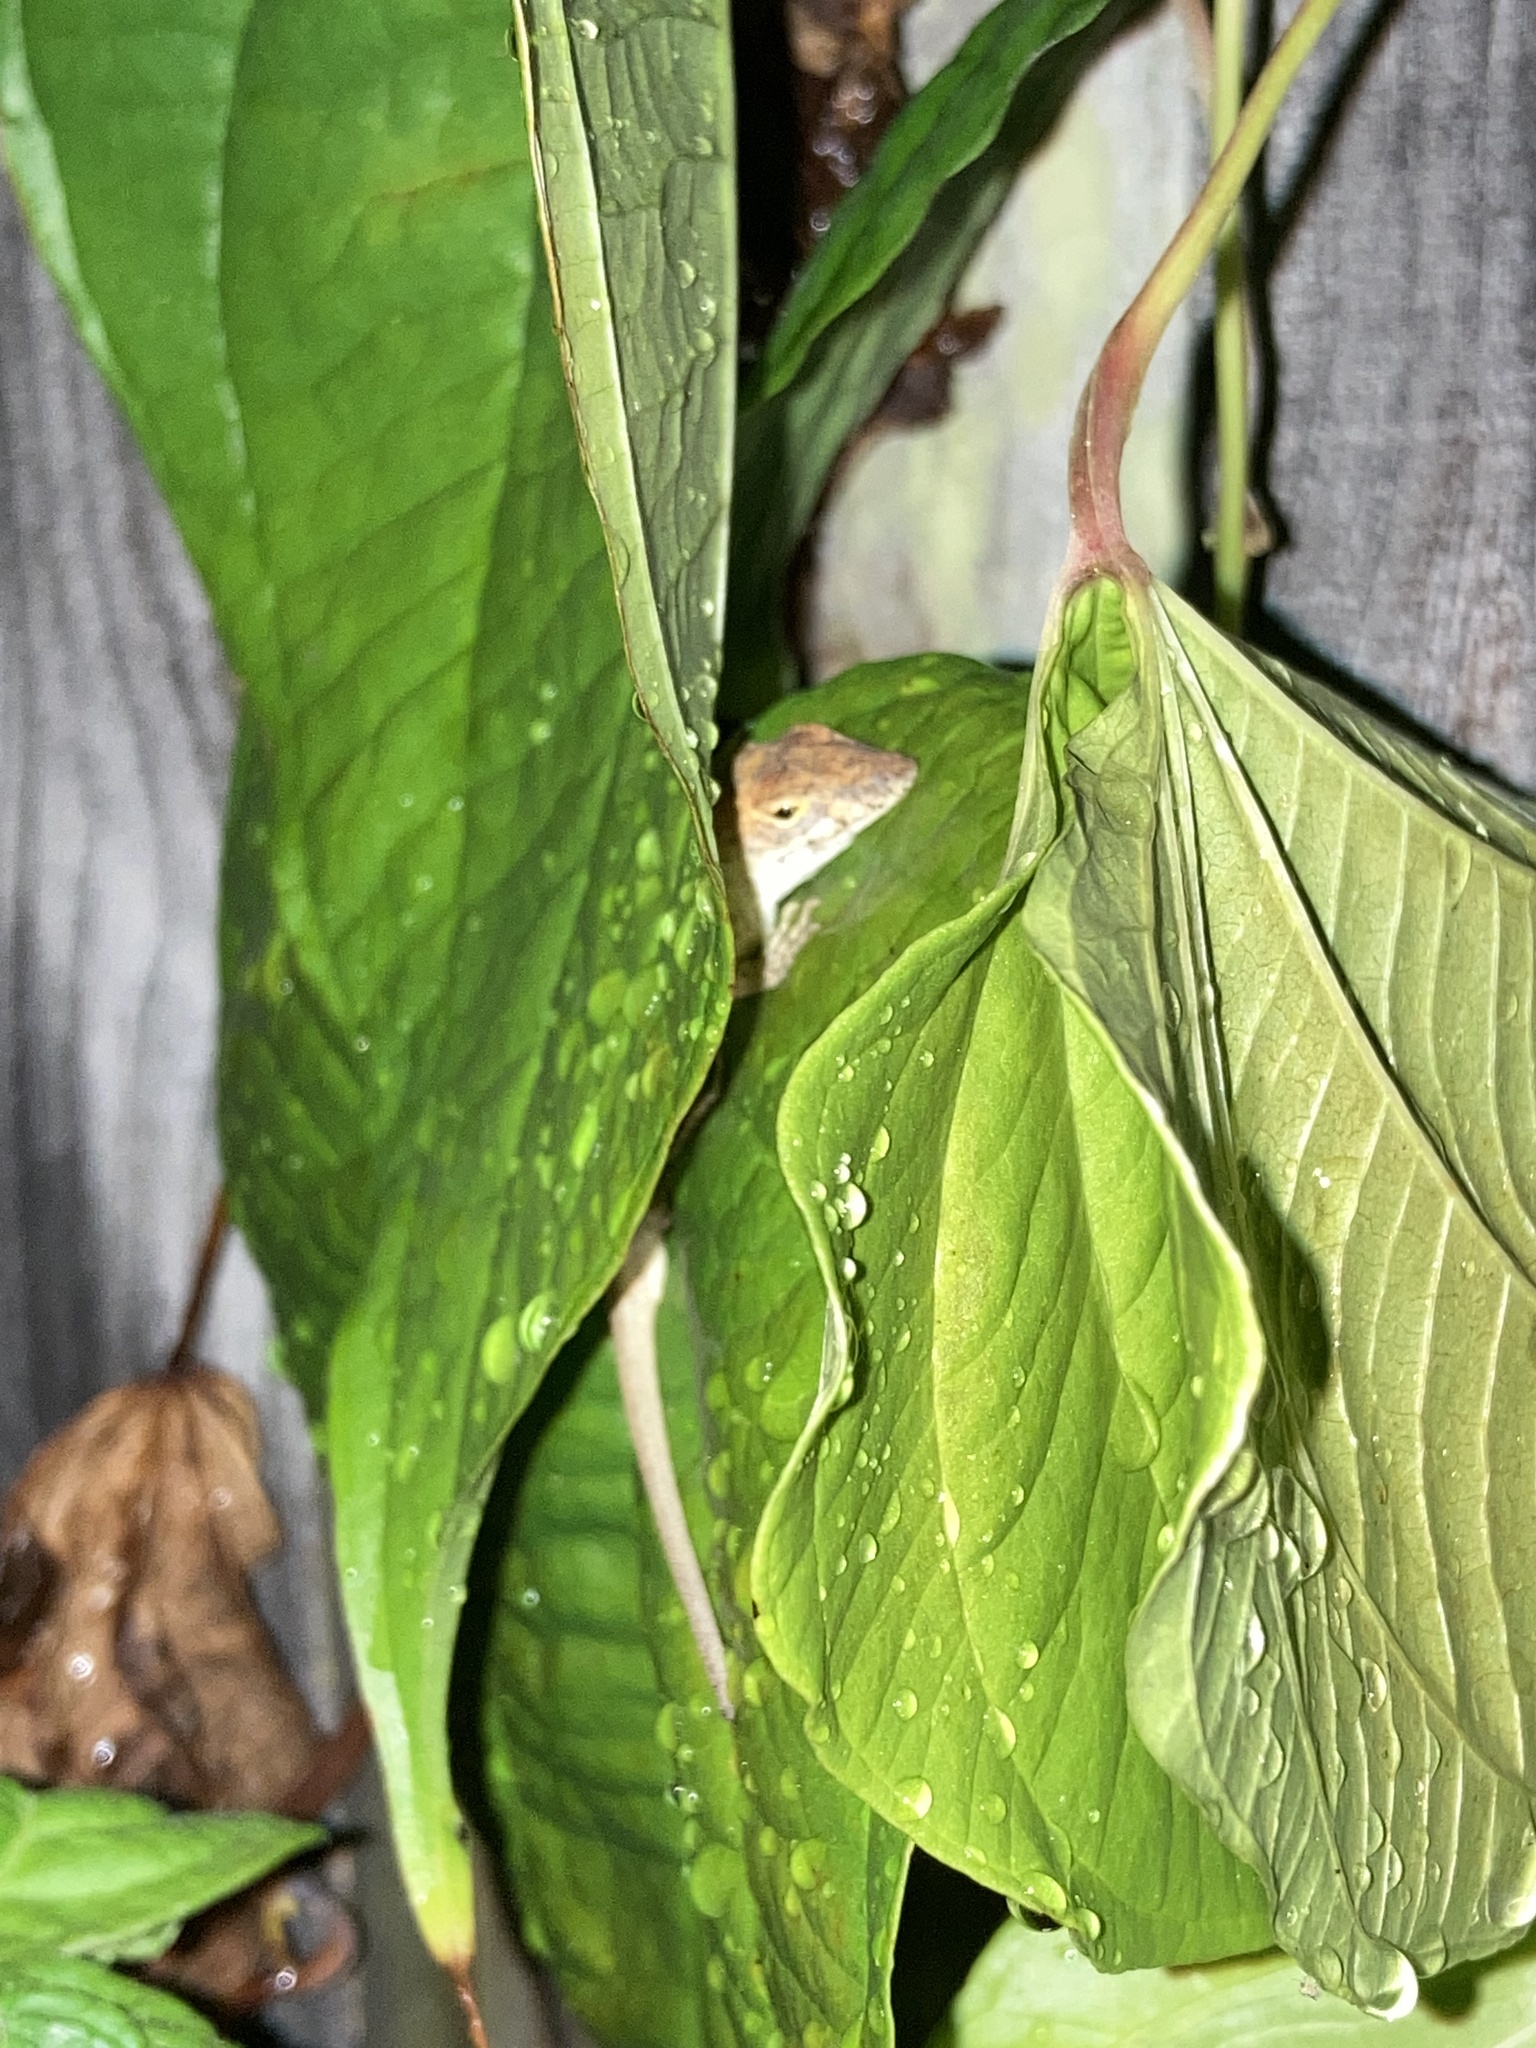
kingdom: Animalia
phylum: Chordata
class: Squamata
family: Dactyloidae
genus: Anolis
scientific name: Anolis sagrei
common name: Brown anole
